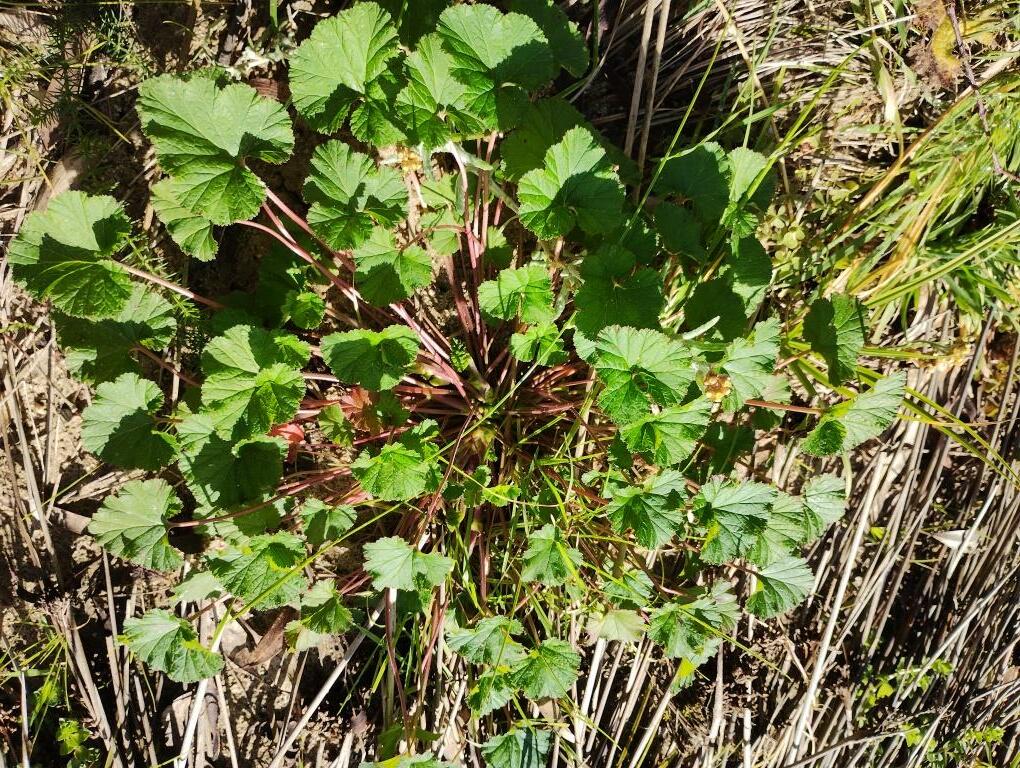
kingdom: Plantae
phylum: Tracheophyta
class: Magnoliopsida
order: Geraniales
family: Geraniaceae
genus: Pelargonium
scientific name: Pelargonium australe
